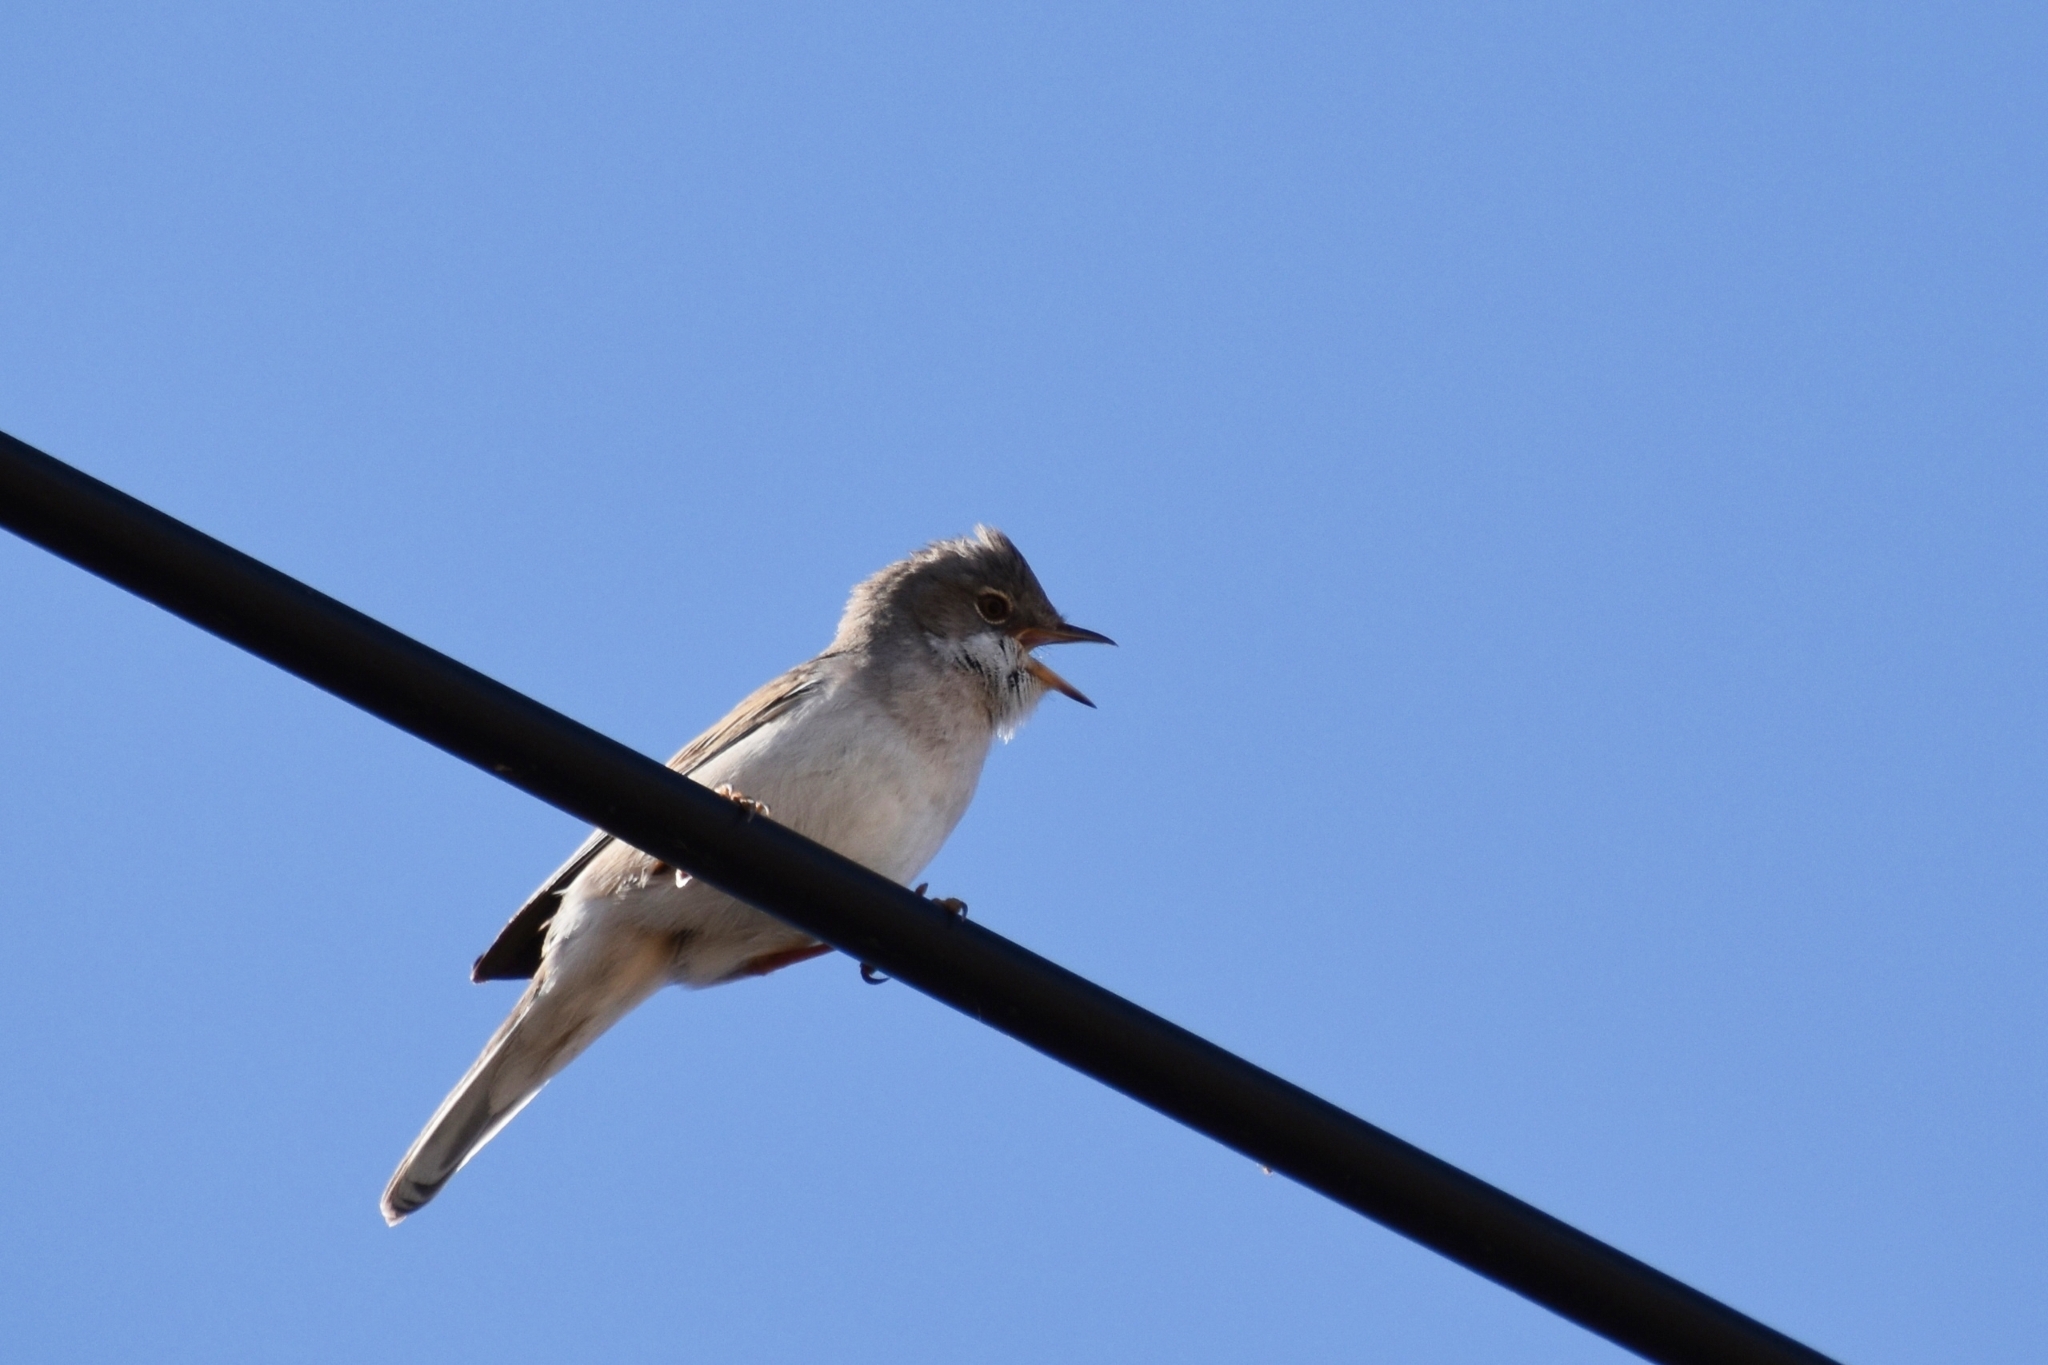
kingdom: Animalia
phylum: Chordata
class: Aves
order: Passeriformes
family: Sylviidae
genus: Sylvia
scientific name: Sylvia communis
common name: Common whitethroat
